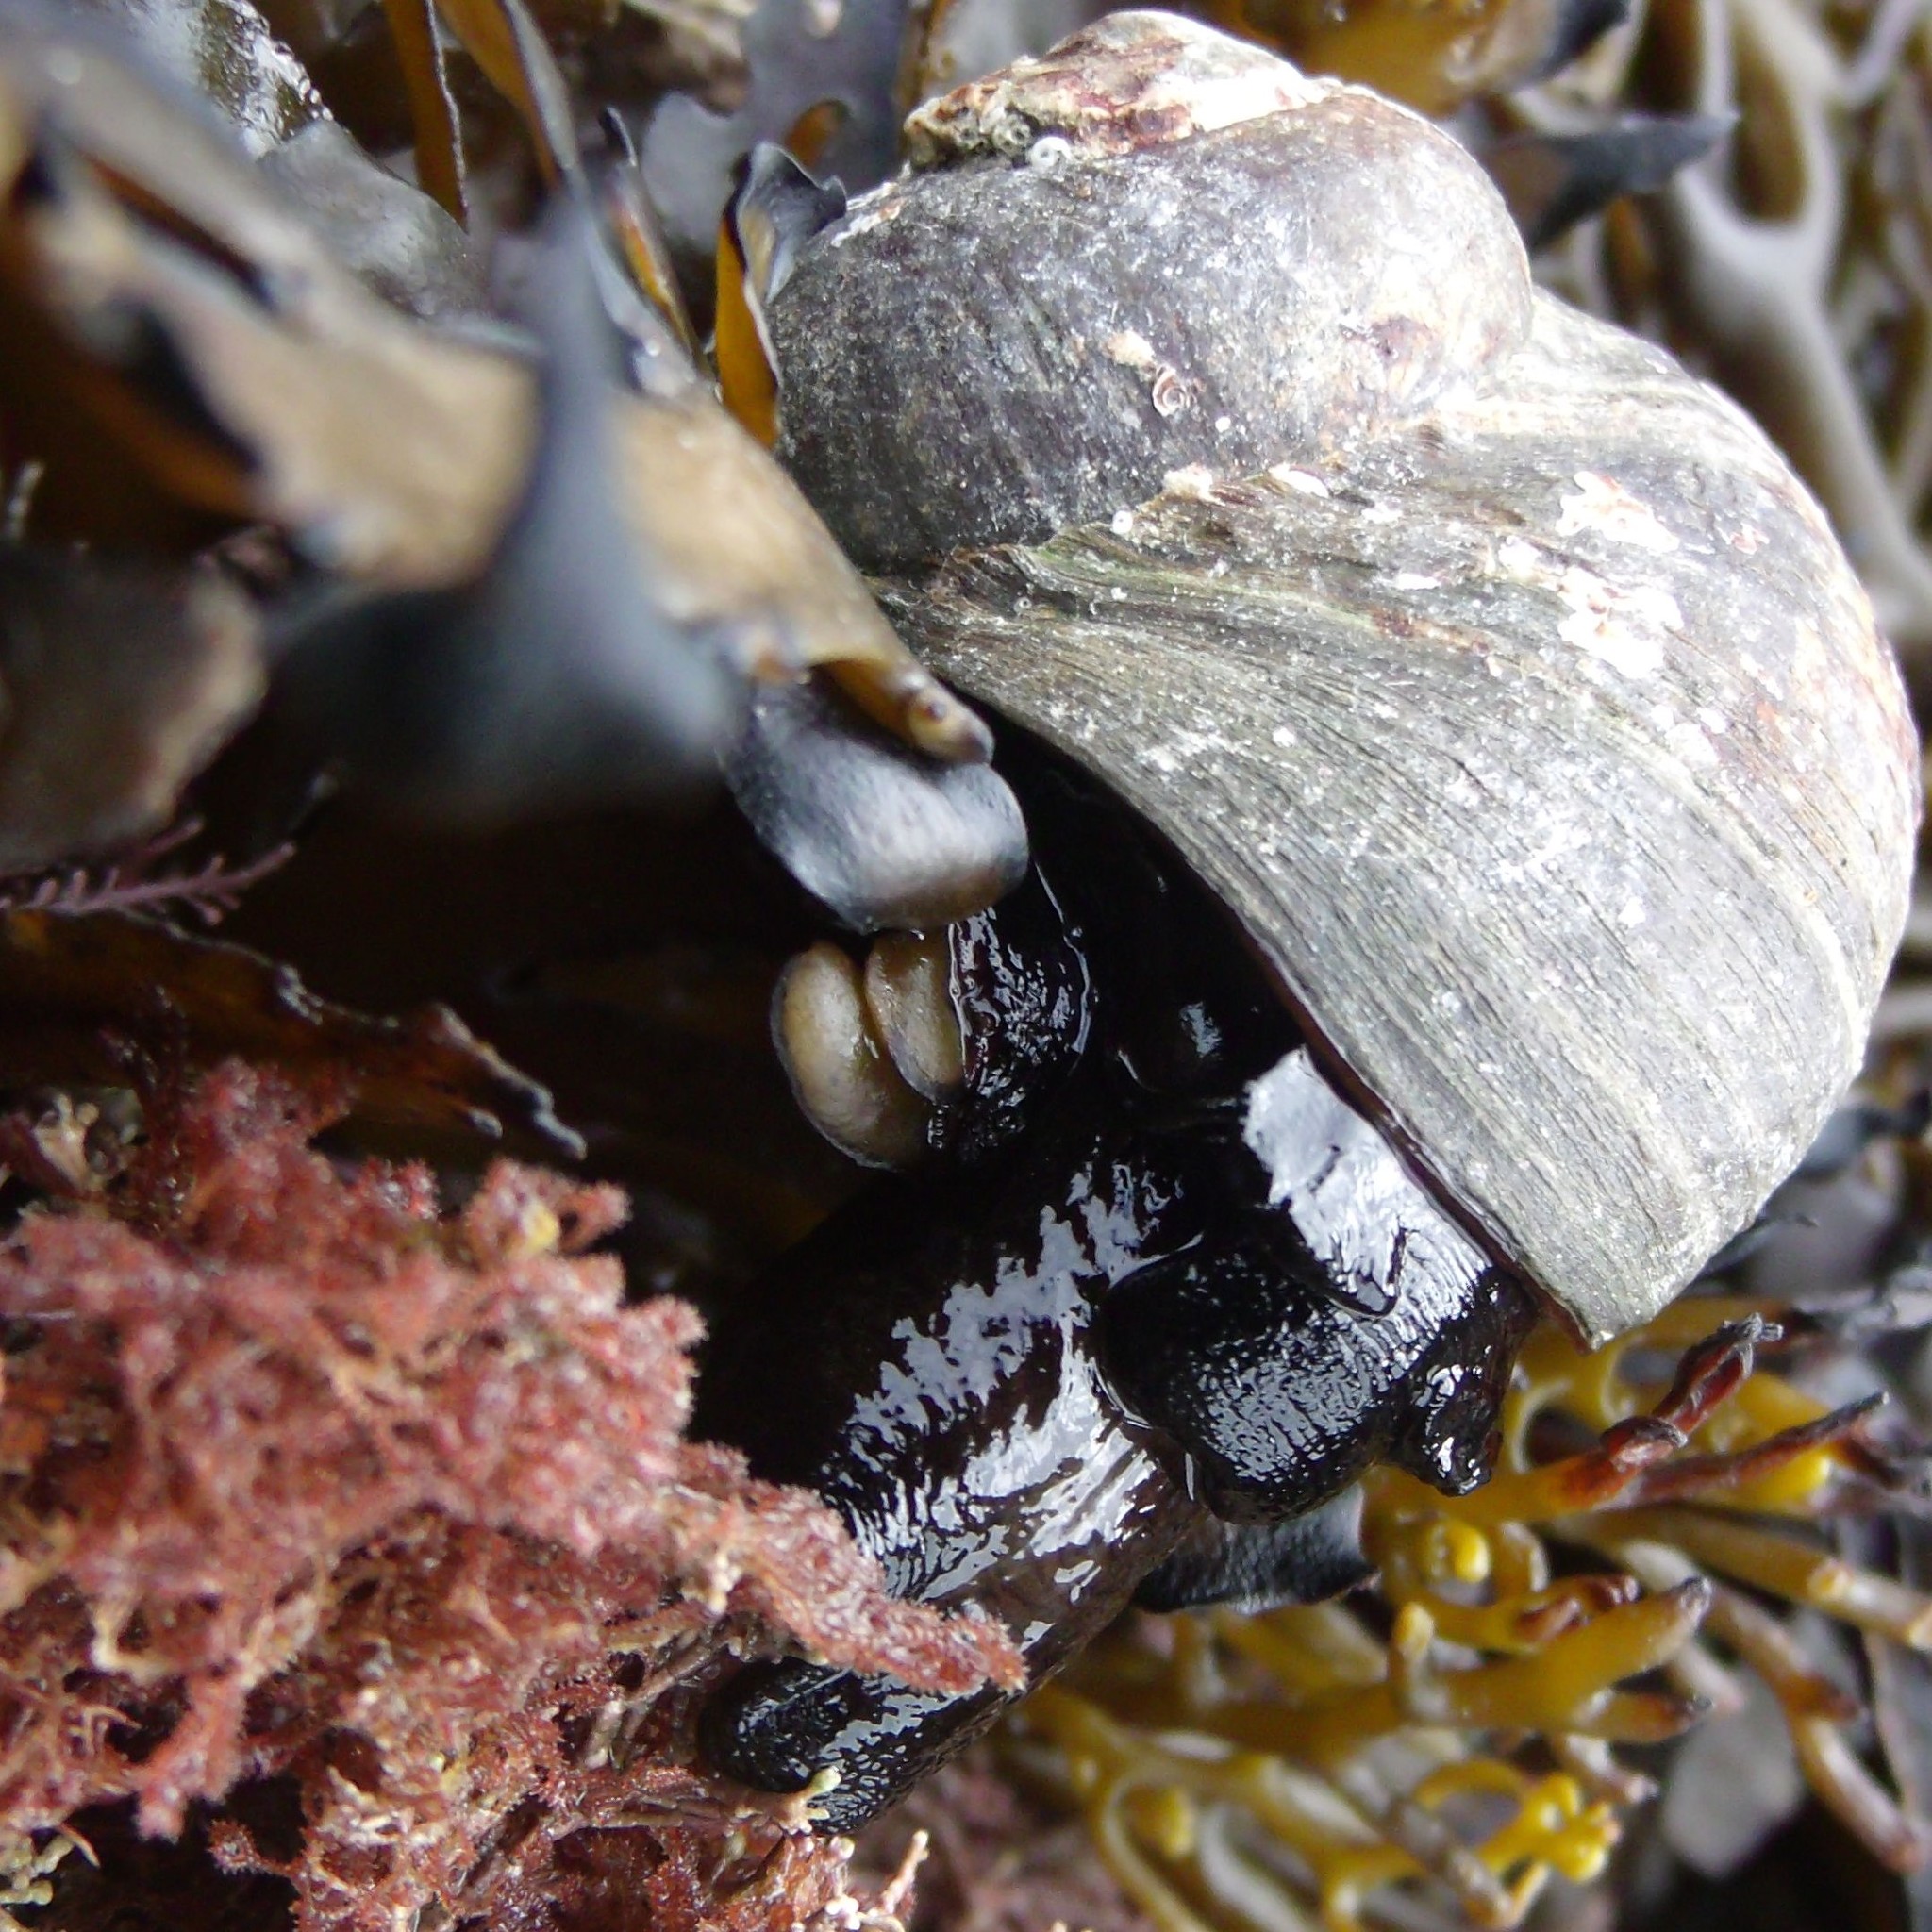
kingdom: Animalia
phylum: Mollusca
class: Gastropoda
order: Trochida
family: Turbinidae
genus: Lunella
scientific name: Lunella smaragda
